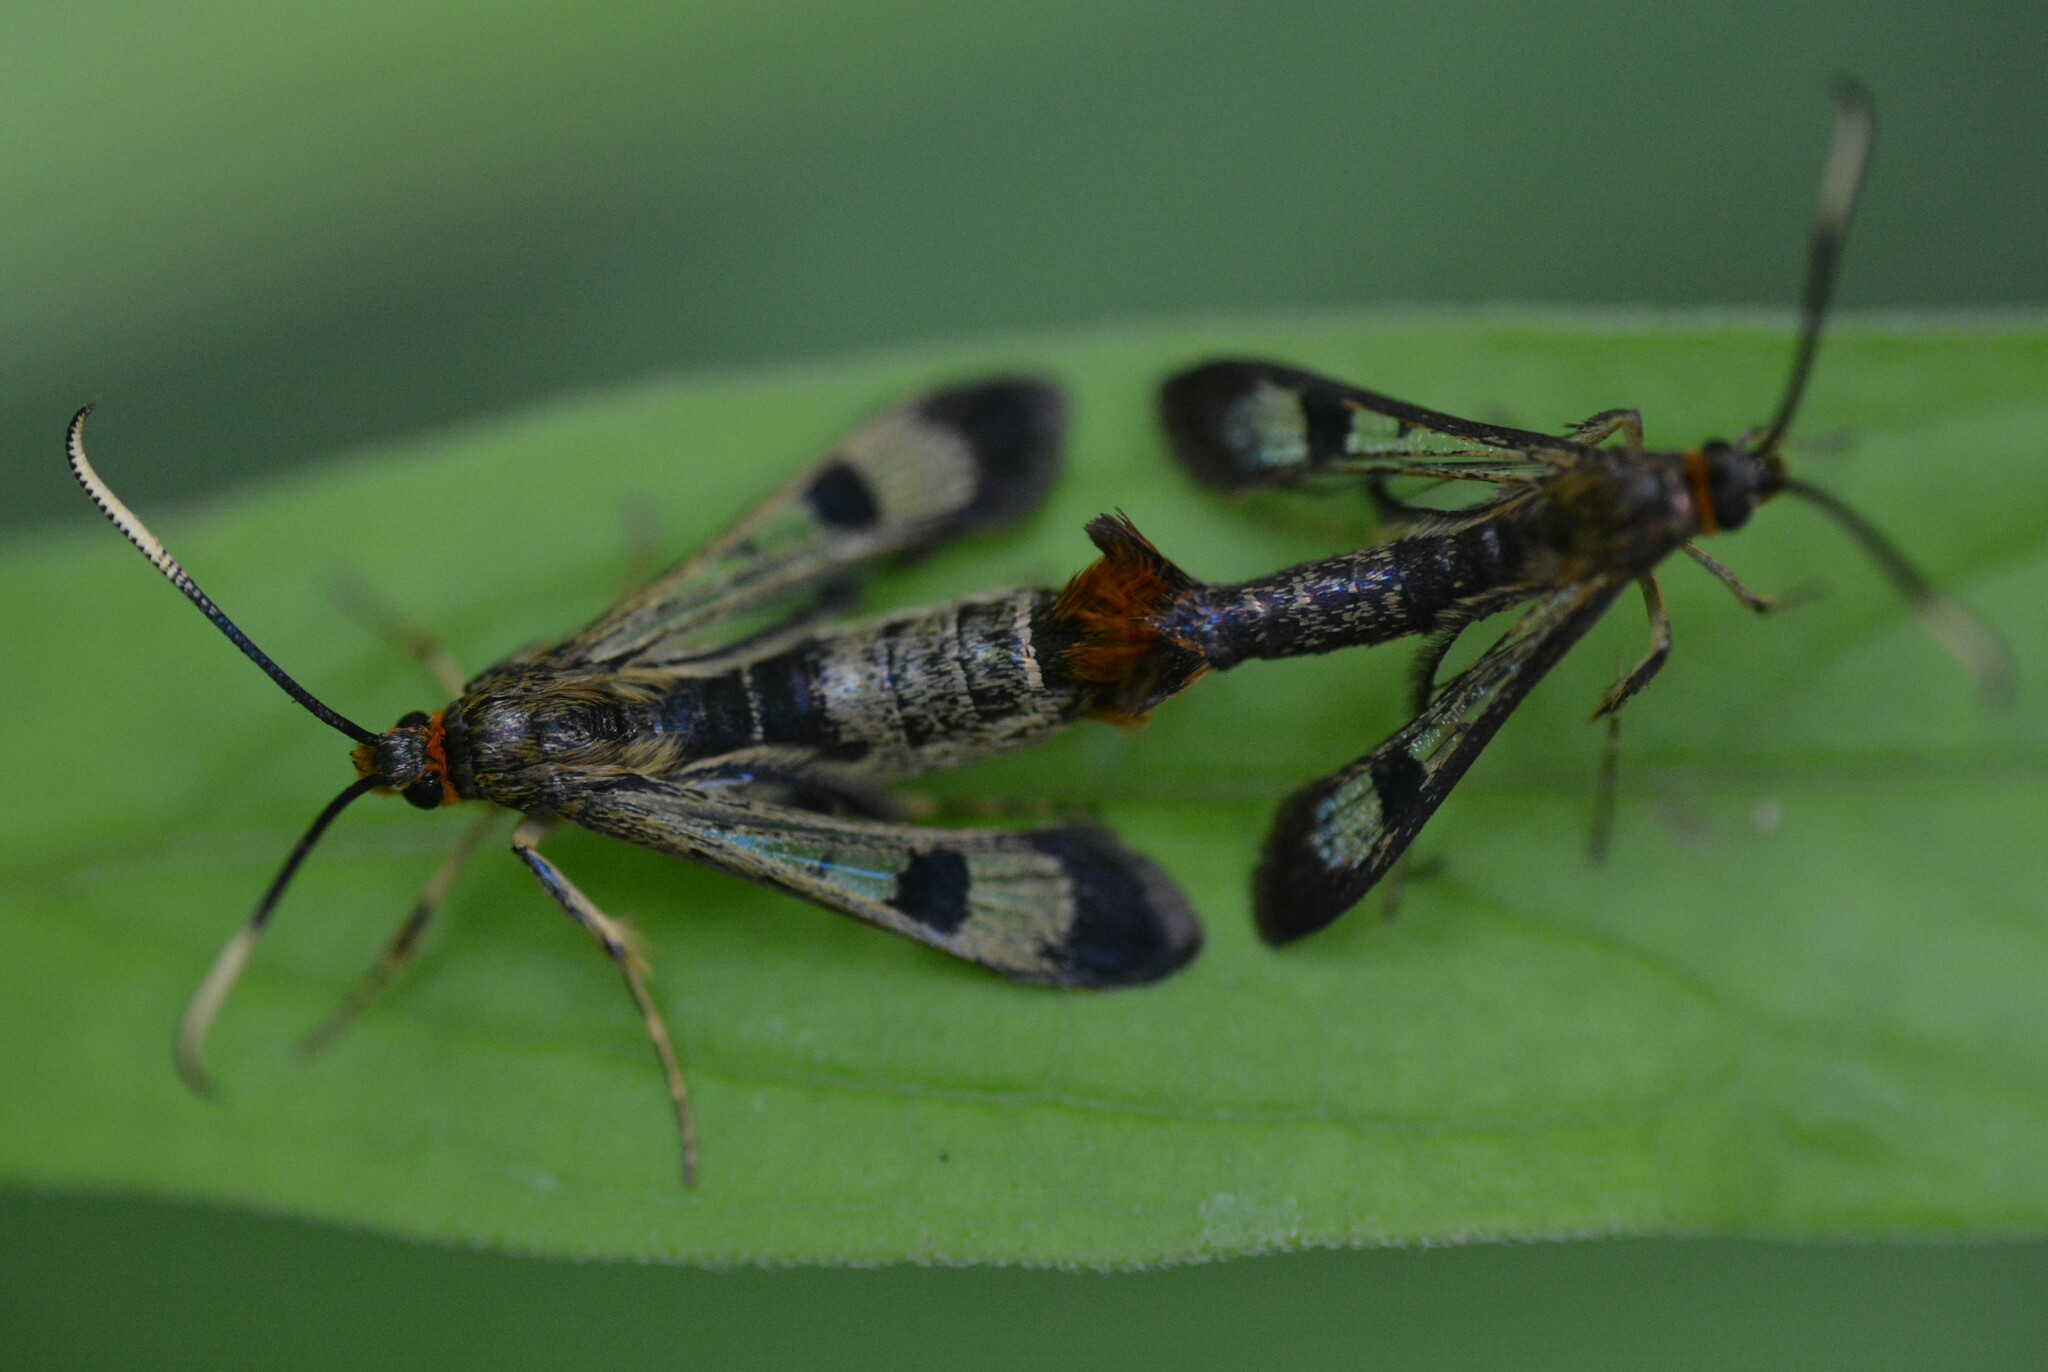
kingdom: Animalia
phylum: Arthropoda
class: Insecta
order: Lepidoptera
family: Sesiidae
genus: Carmenta
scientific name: Carmenta corni
